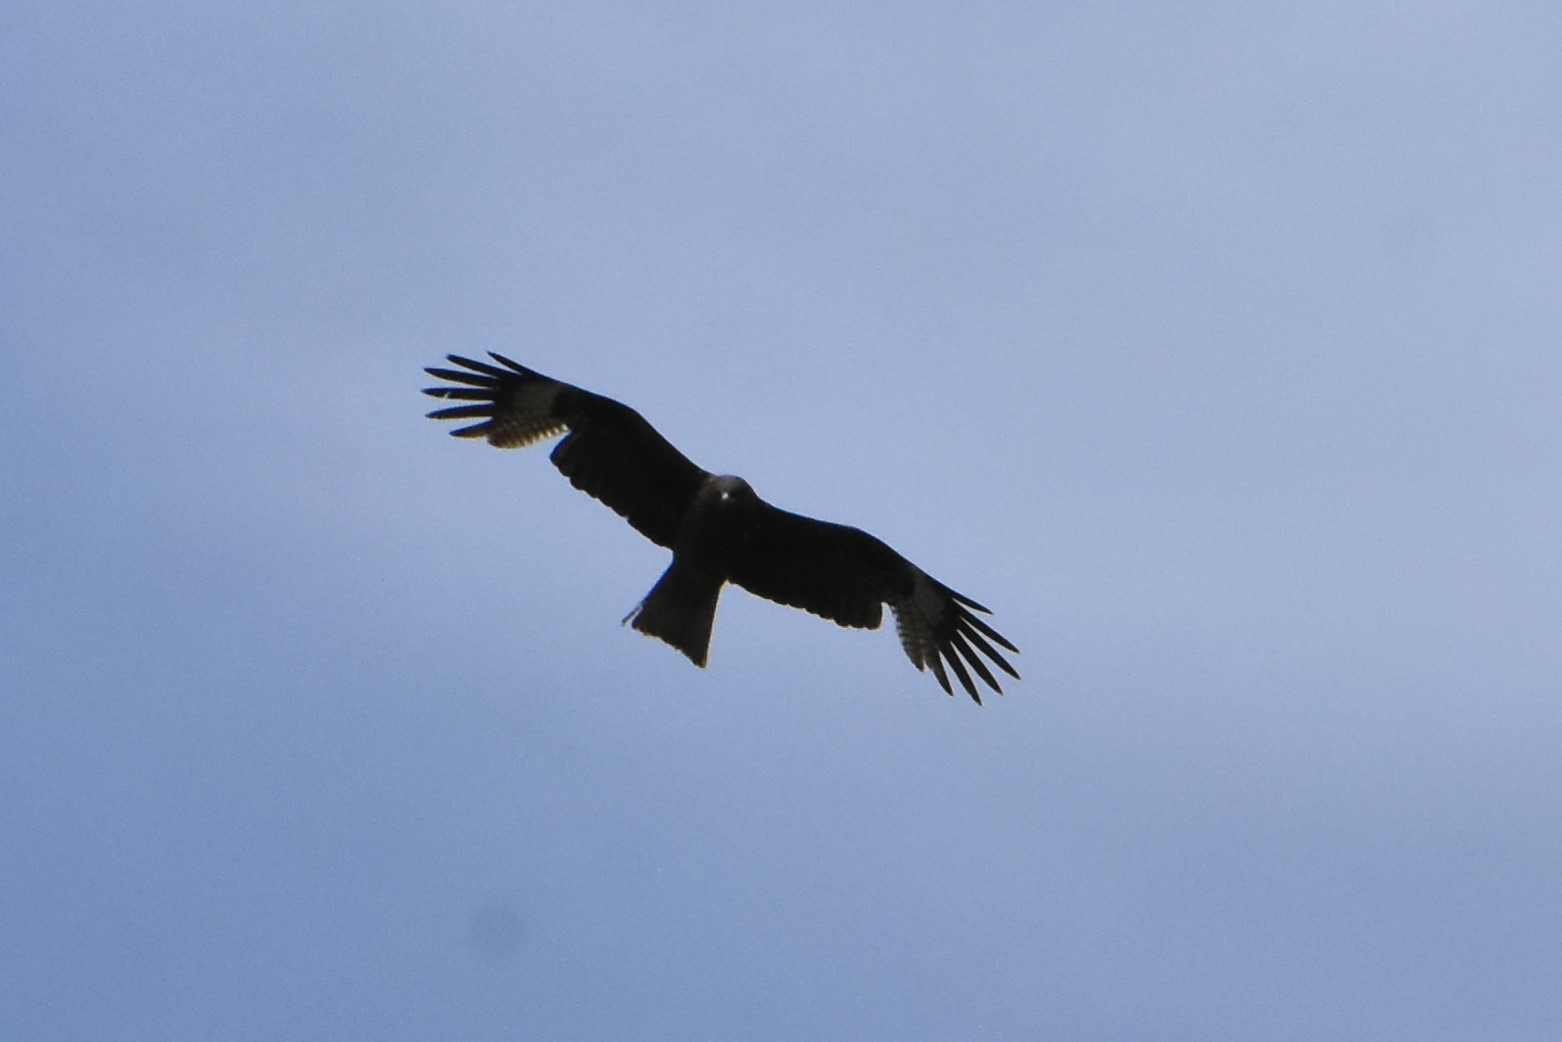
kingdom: Animalia
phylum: Chordata
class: Aves
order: Accipitriformes
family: Accipitridae
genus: Milvus
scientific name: Milvus migrans
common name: Black kite
